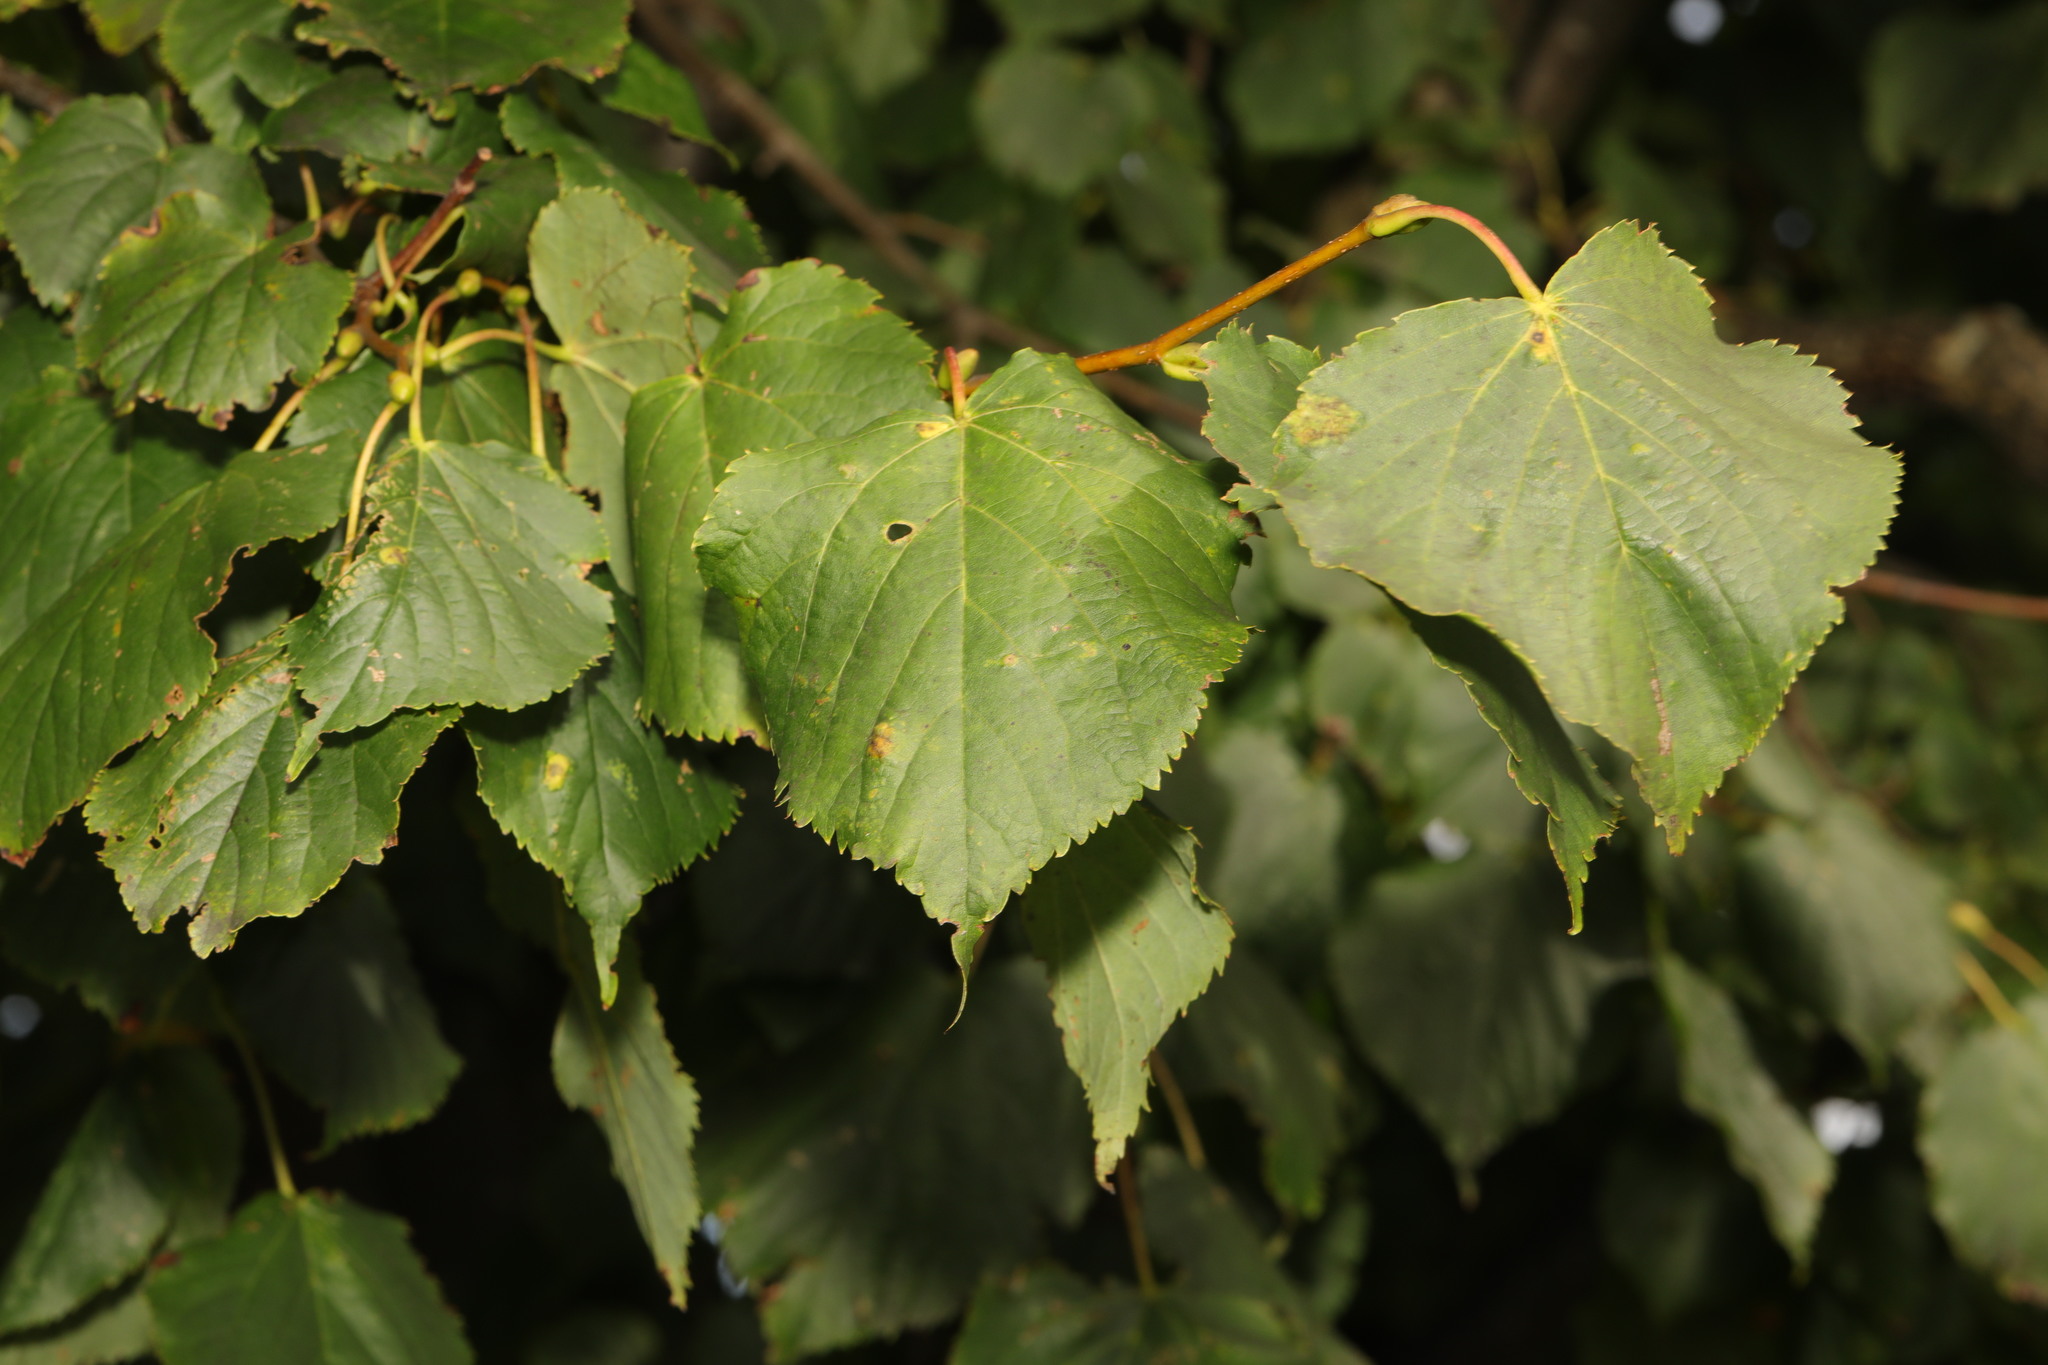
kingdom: Plantae
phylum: Tracheophyta
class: Magnoliopsida
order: Malvales
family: Malvaceae
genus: Tilia
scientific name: Tilia europaea
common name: European linden
